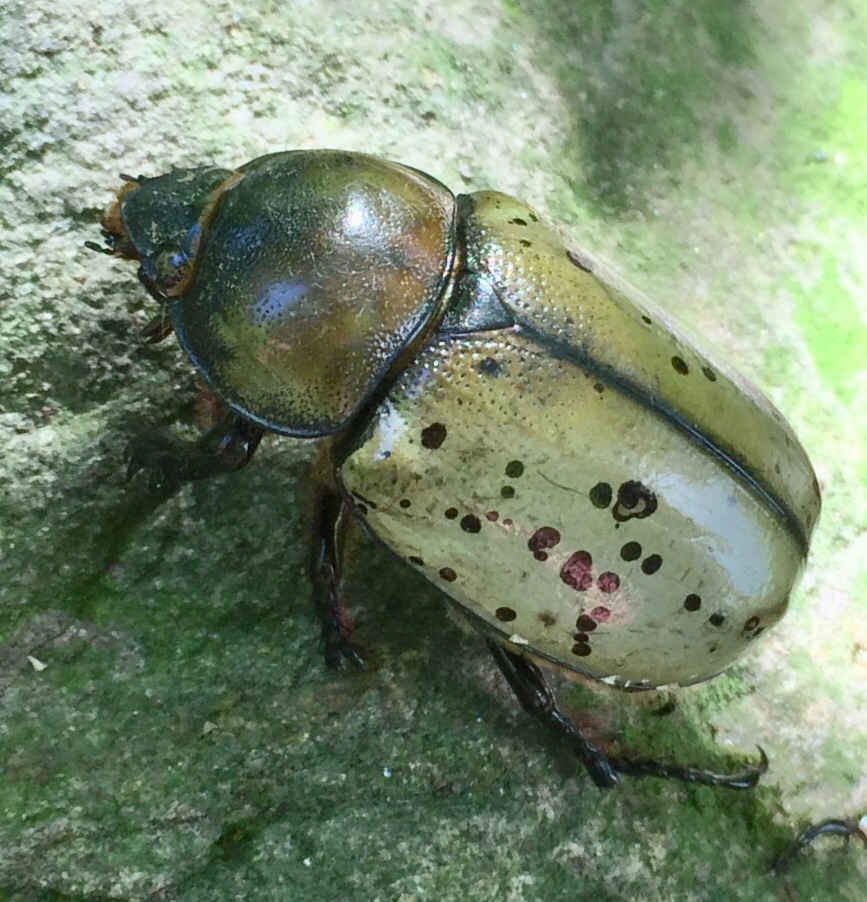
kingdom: Animalia
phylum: Arthropoda
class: Insecta
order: Coleoptera
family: Scarabaeidae
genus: Dynastes
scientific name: Dynastes tityus
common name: Eastern hercules beetle
